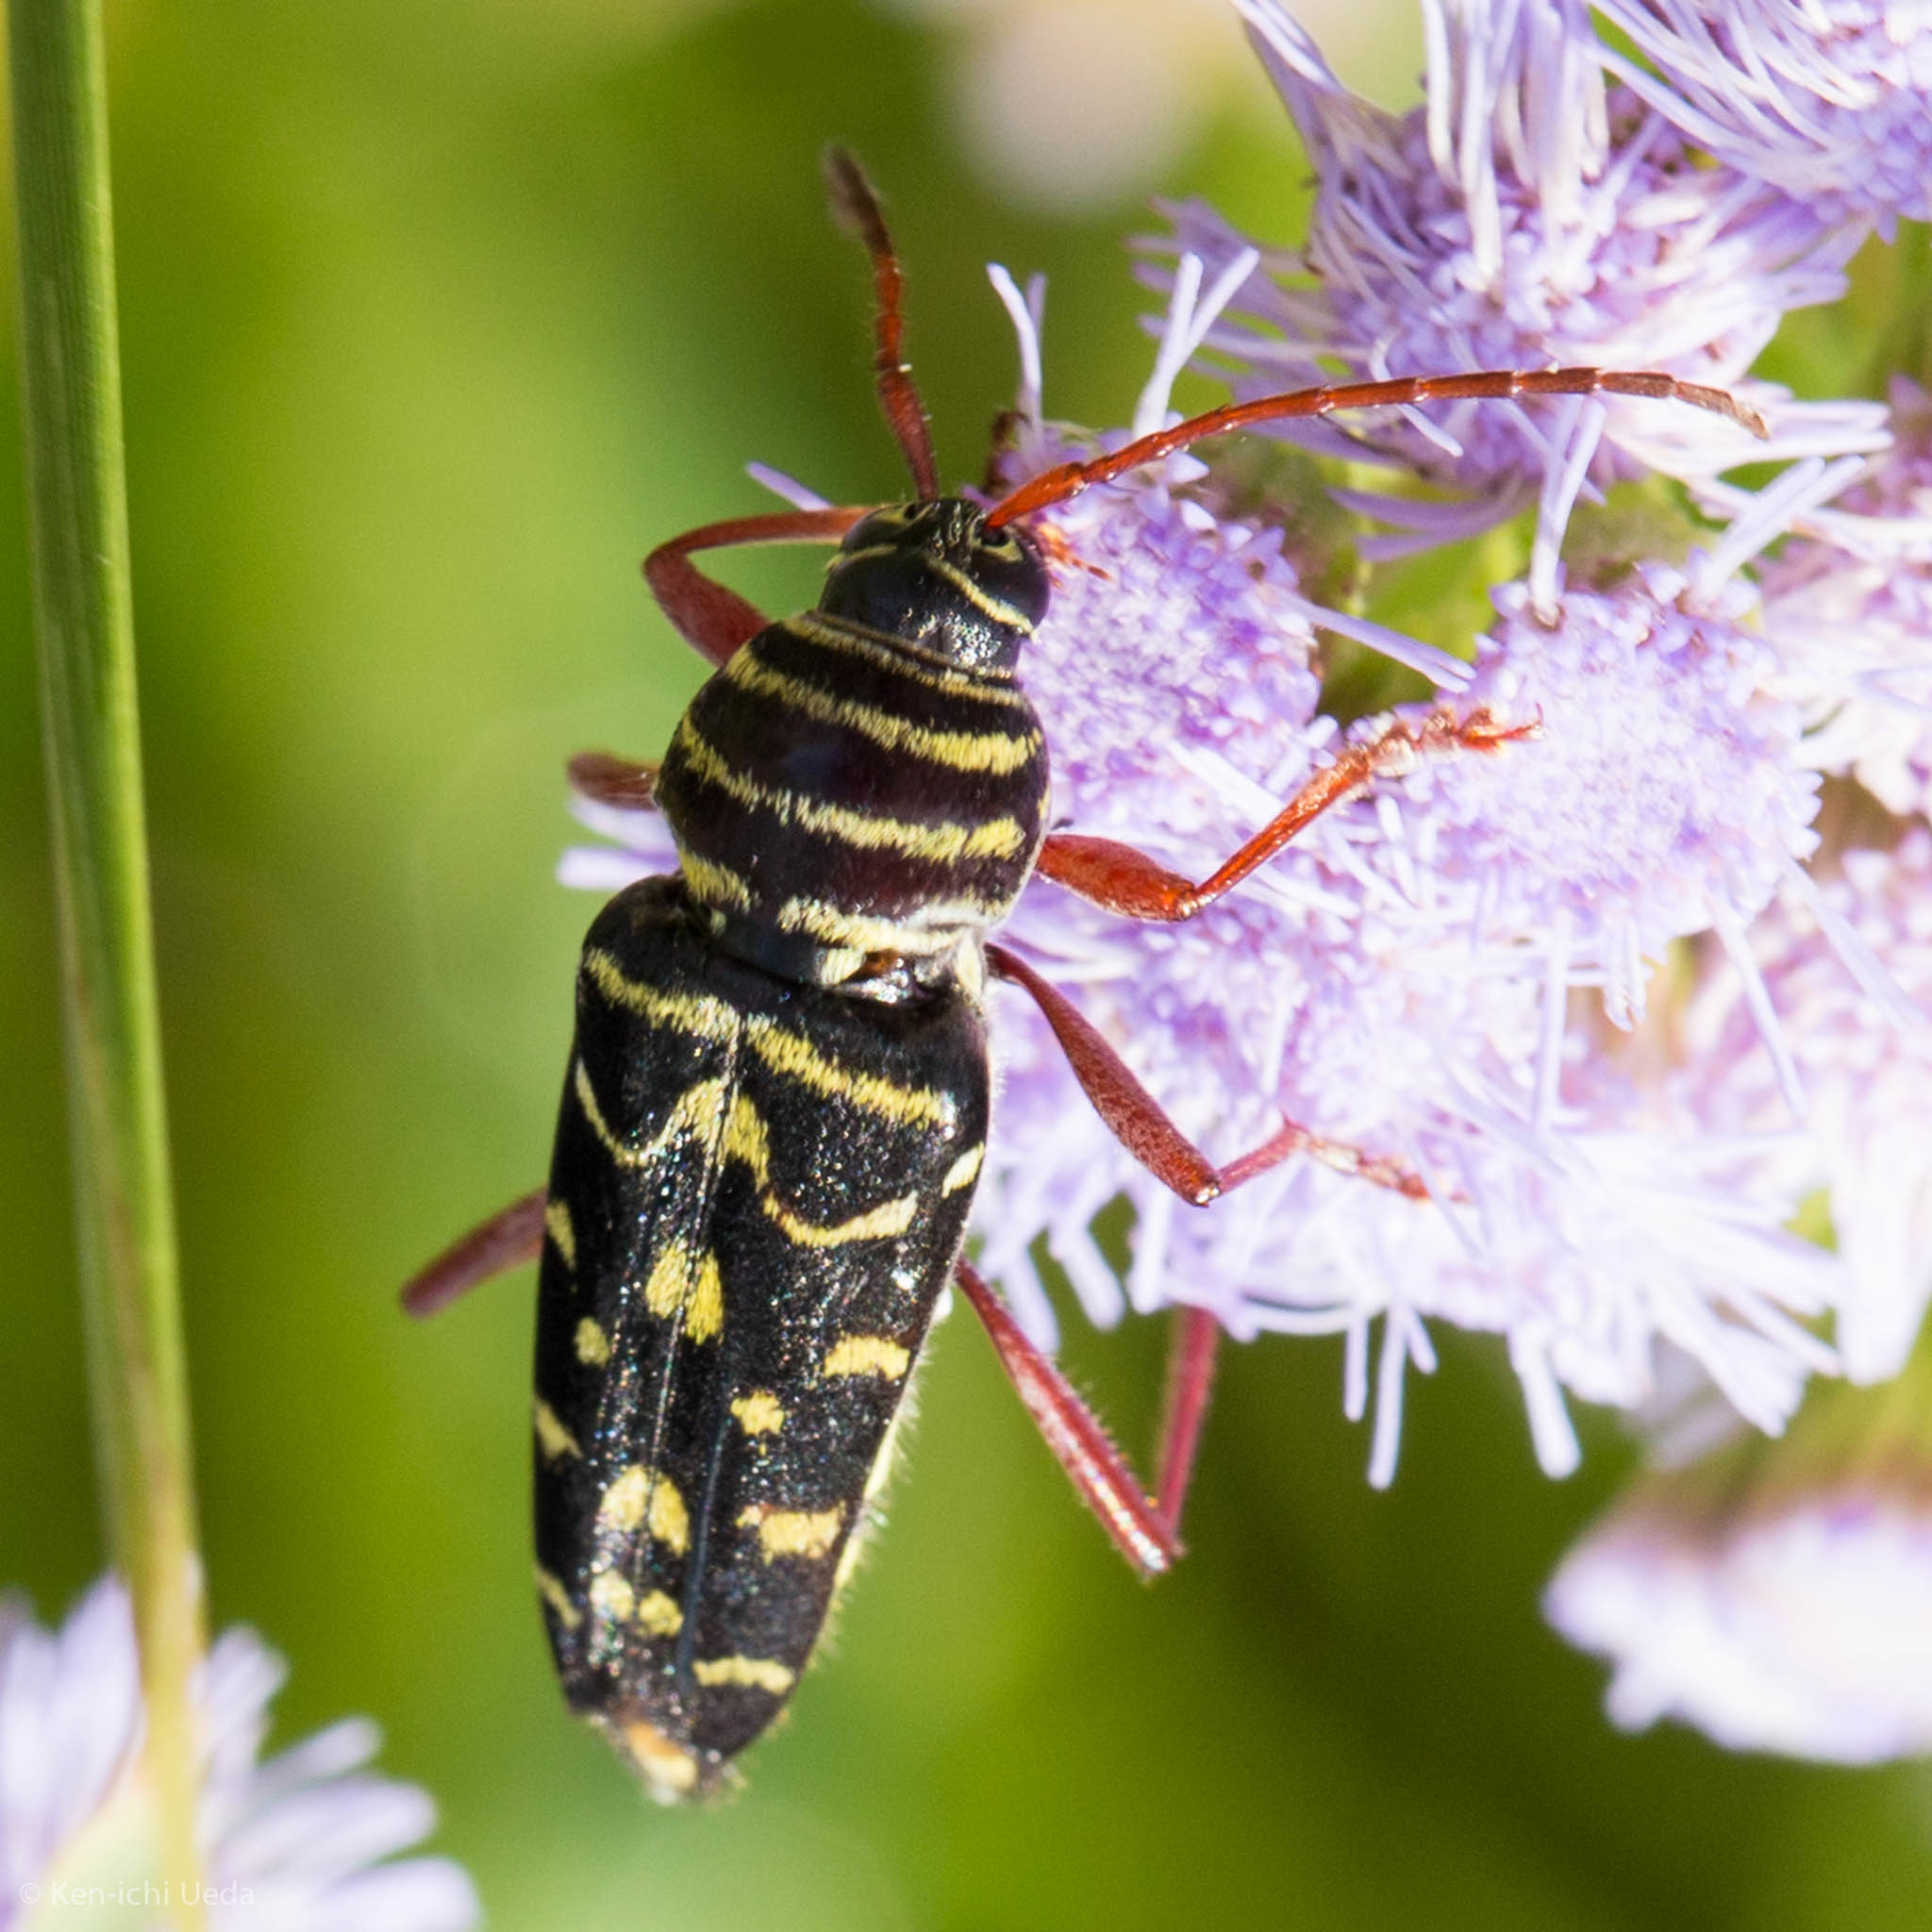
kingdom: Animalia
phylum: Arthropoda
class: Insecta
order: Coleoptera
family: Cerambycidae
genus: Placosternus
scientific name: Placosternus difficilis
